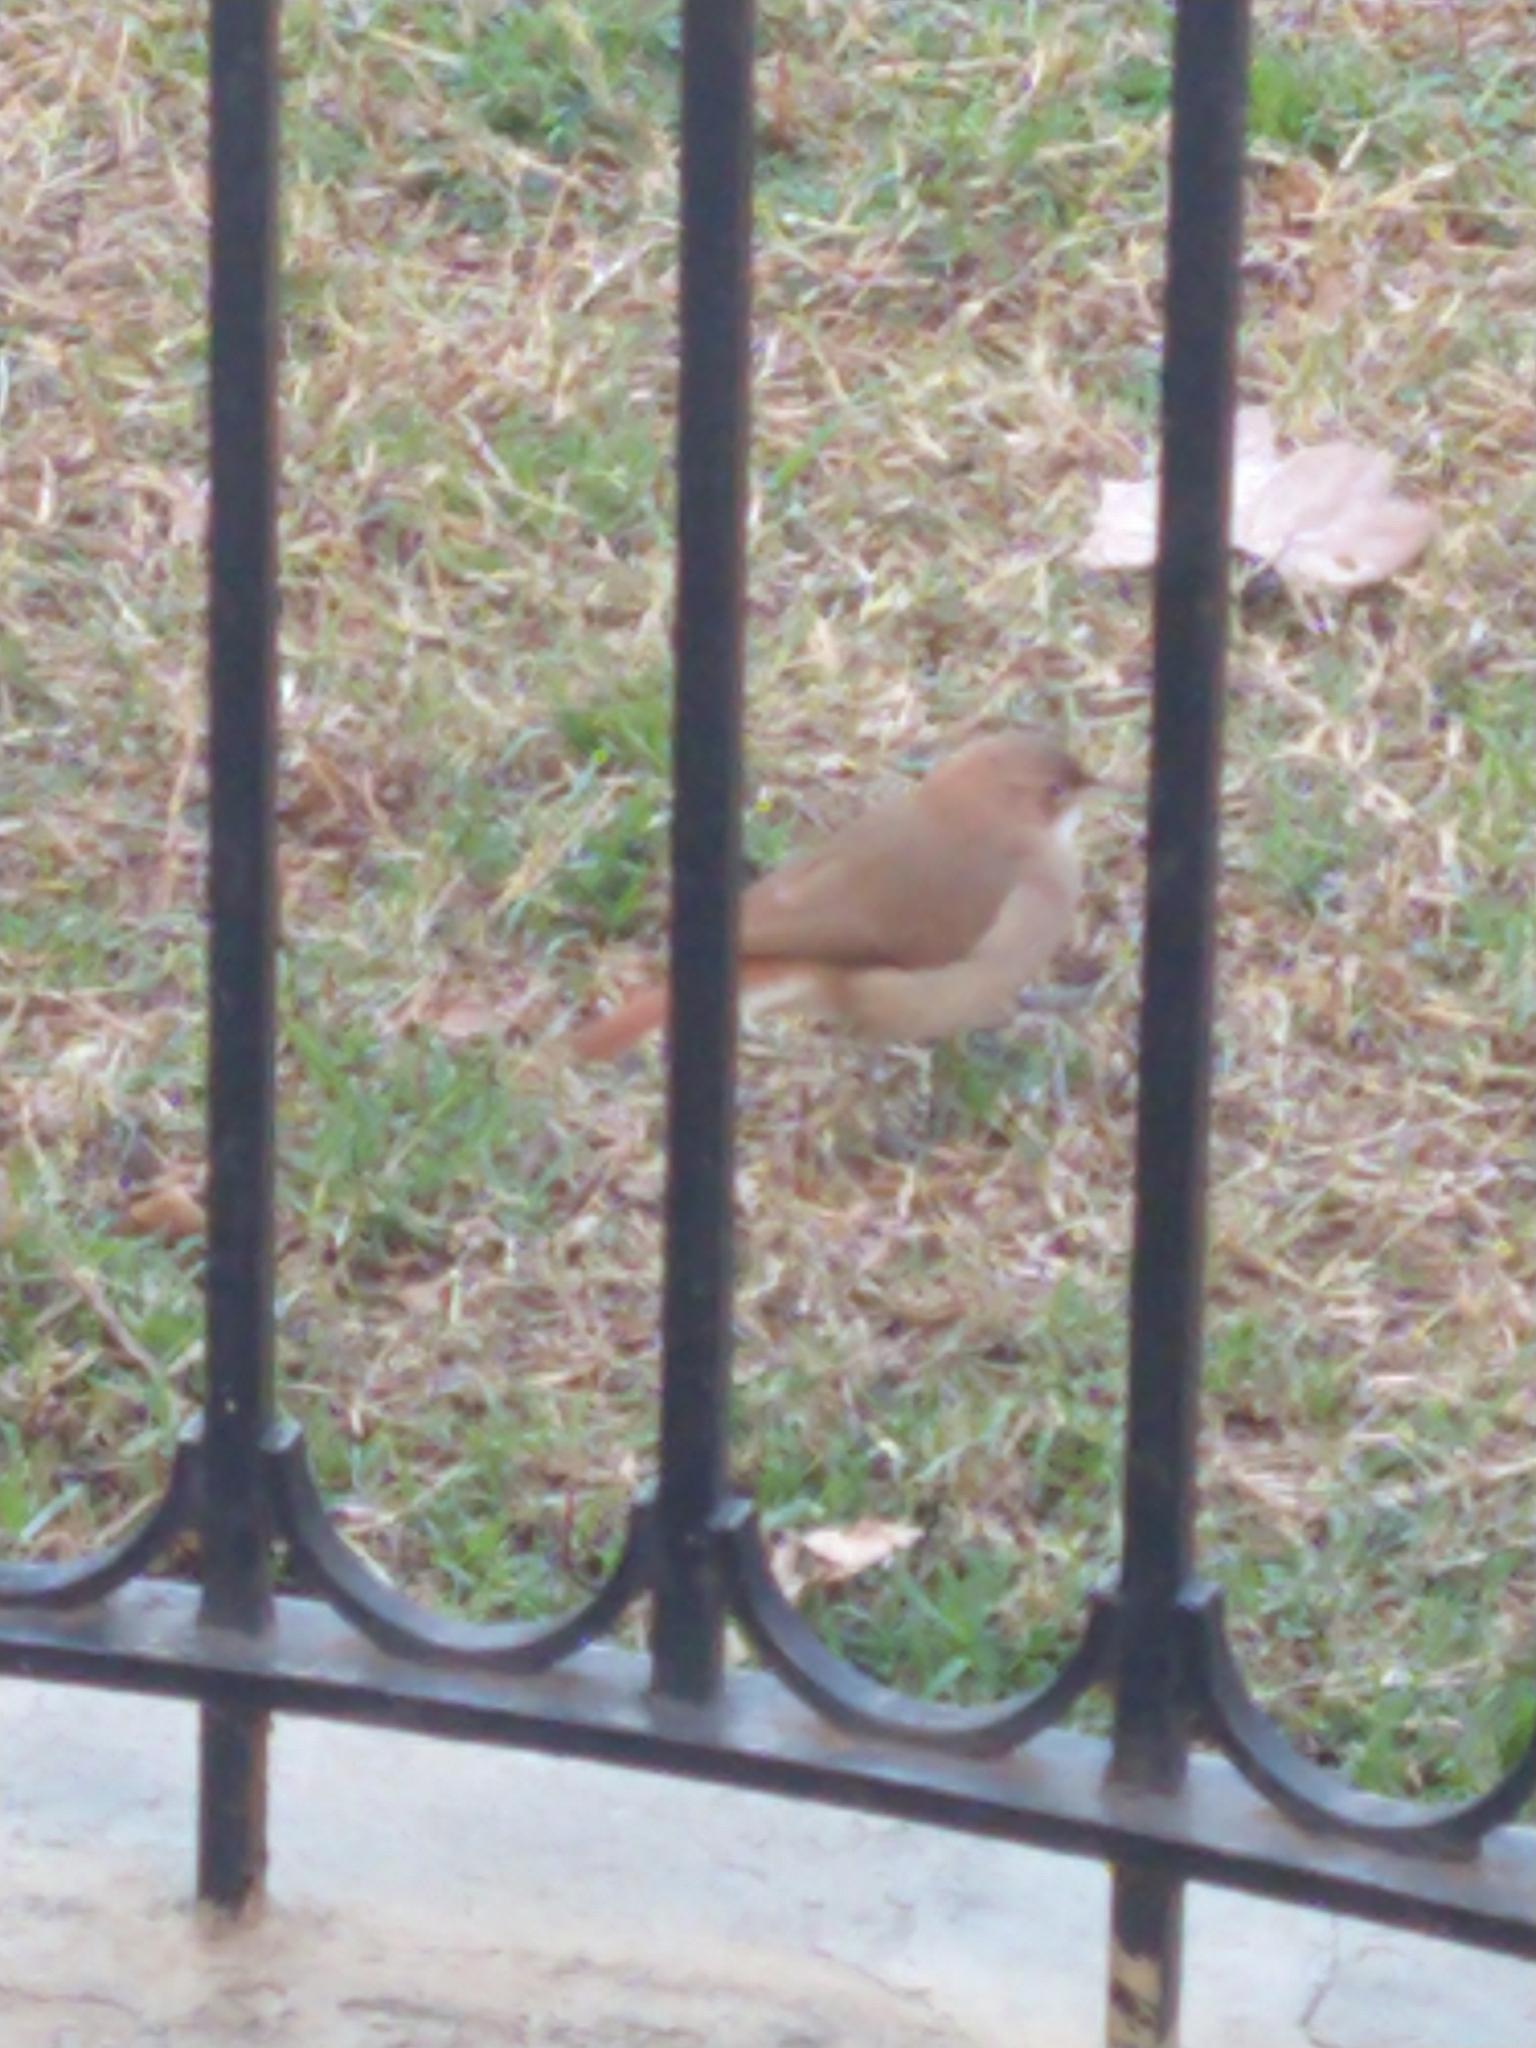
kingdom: Animalia
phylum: Chordata
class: Aves
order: Passeriformes
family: Furnariidae
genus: Furnarius
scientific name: Furnarius rufus
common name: Rufous hornero
